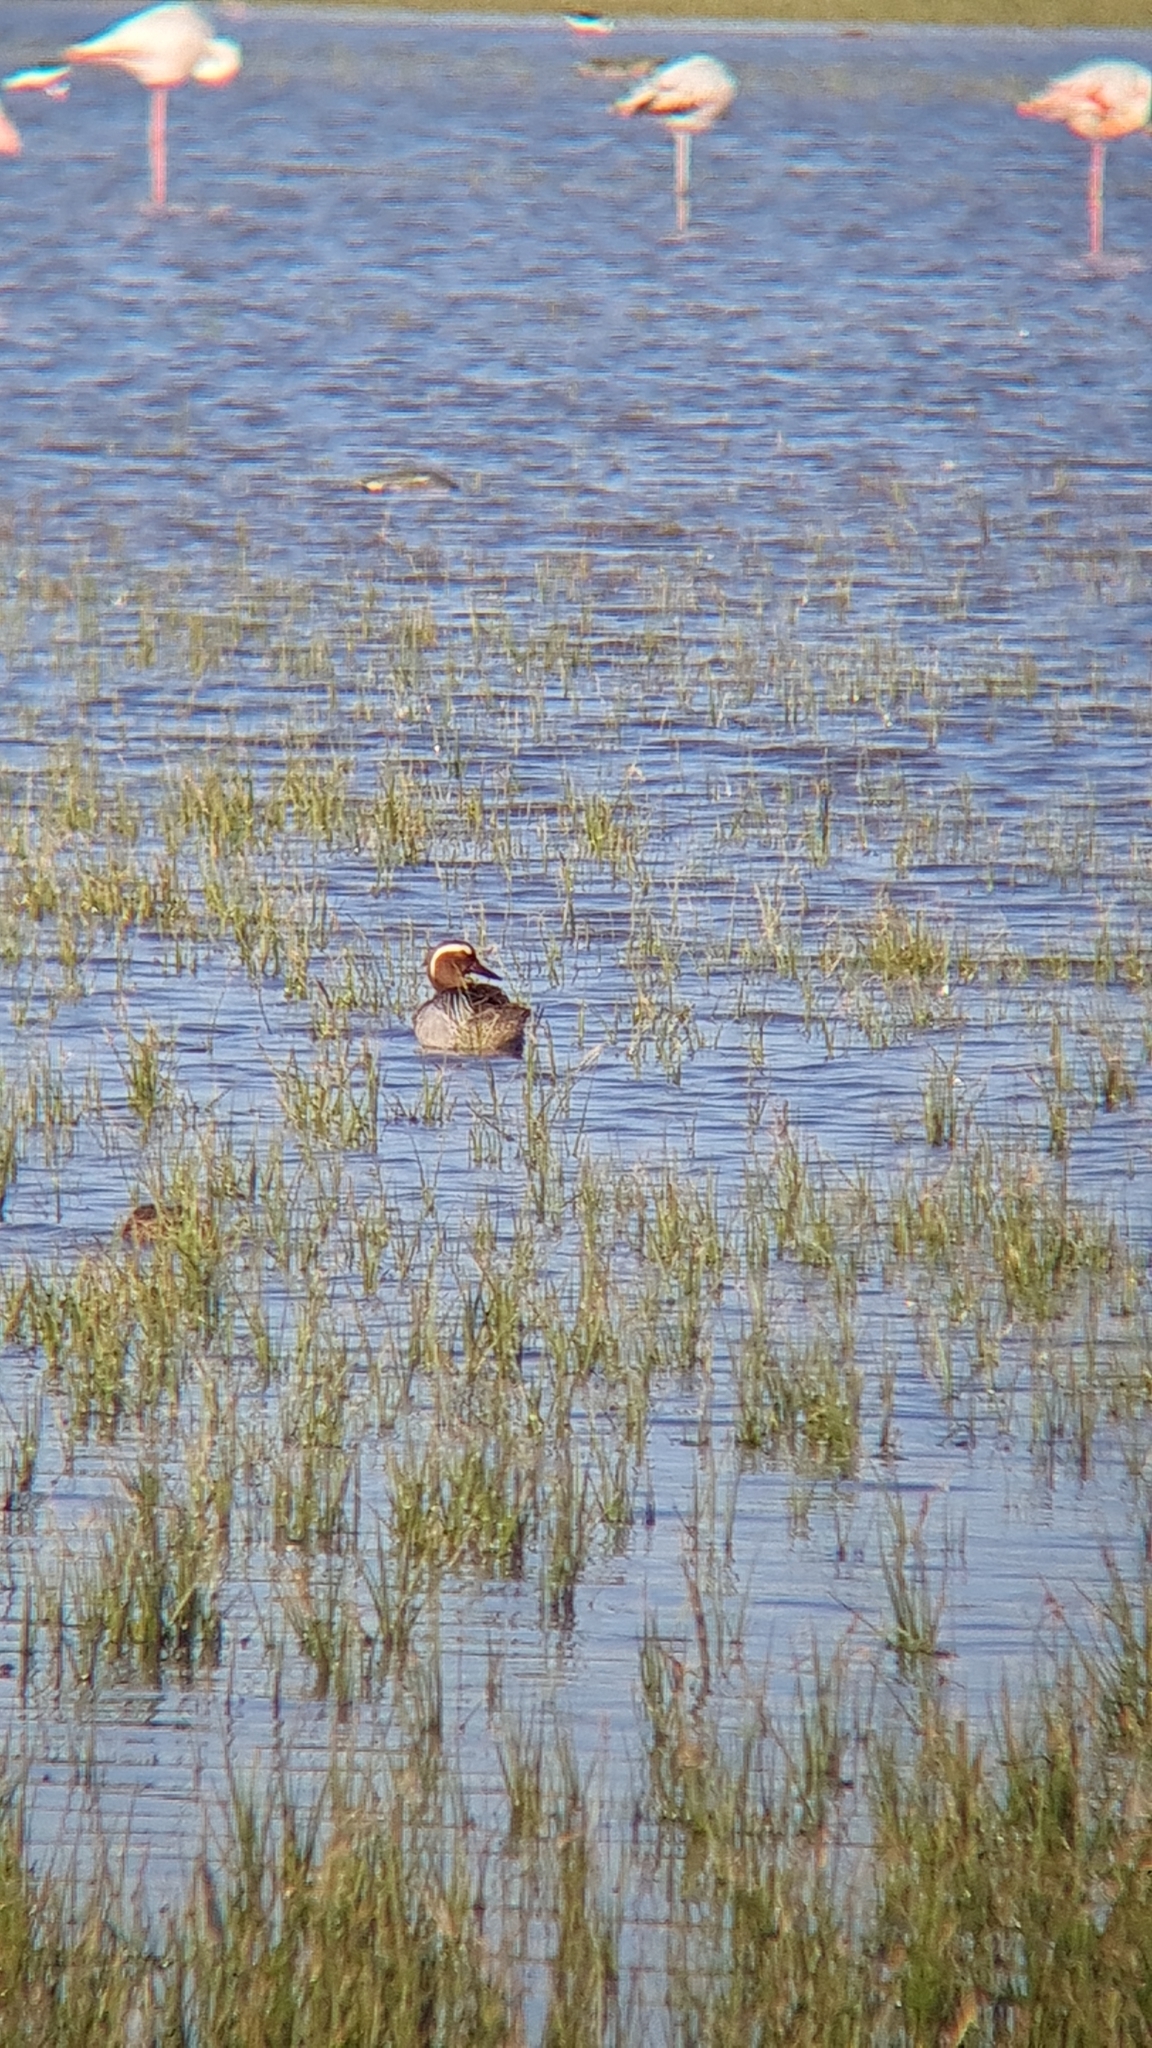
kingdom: Animalia
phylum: Chordata
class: Aves
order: Anseriformes
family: Anatidae
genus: Spatula
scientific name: Spatula querquedula
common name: Garganey
